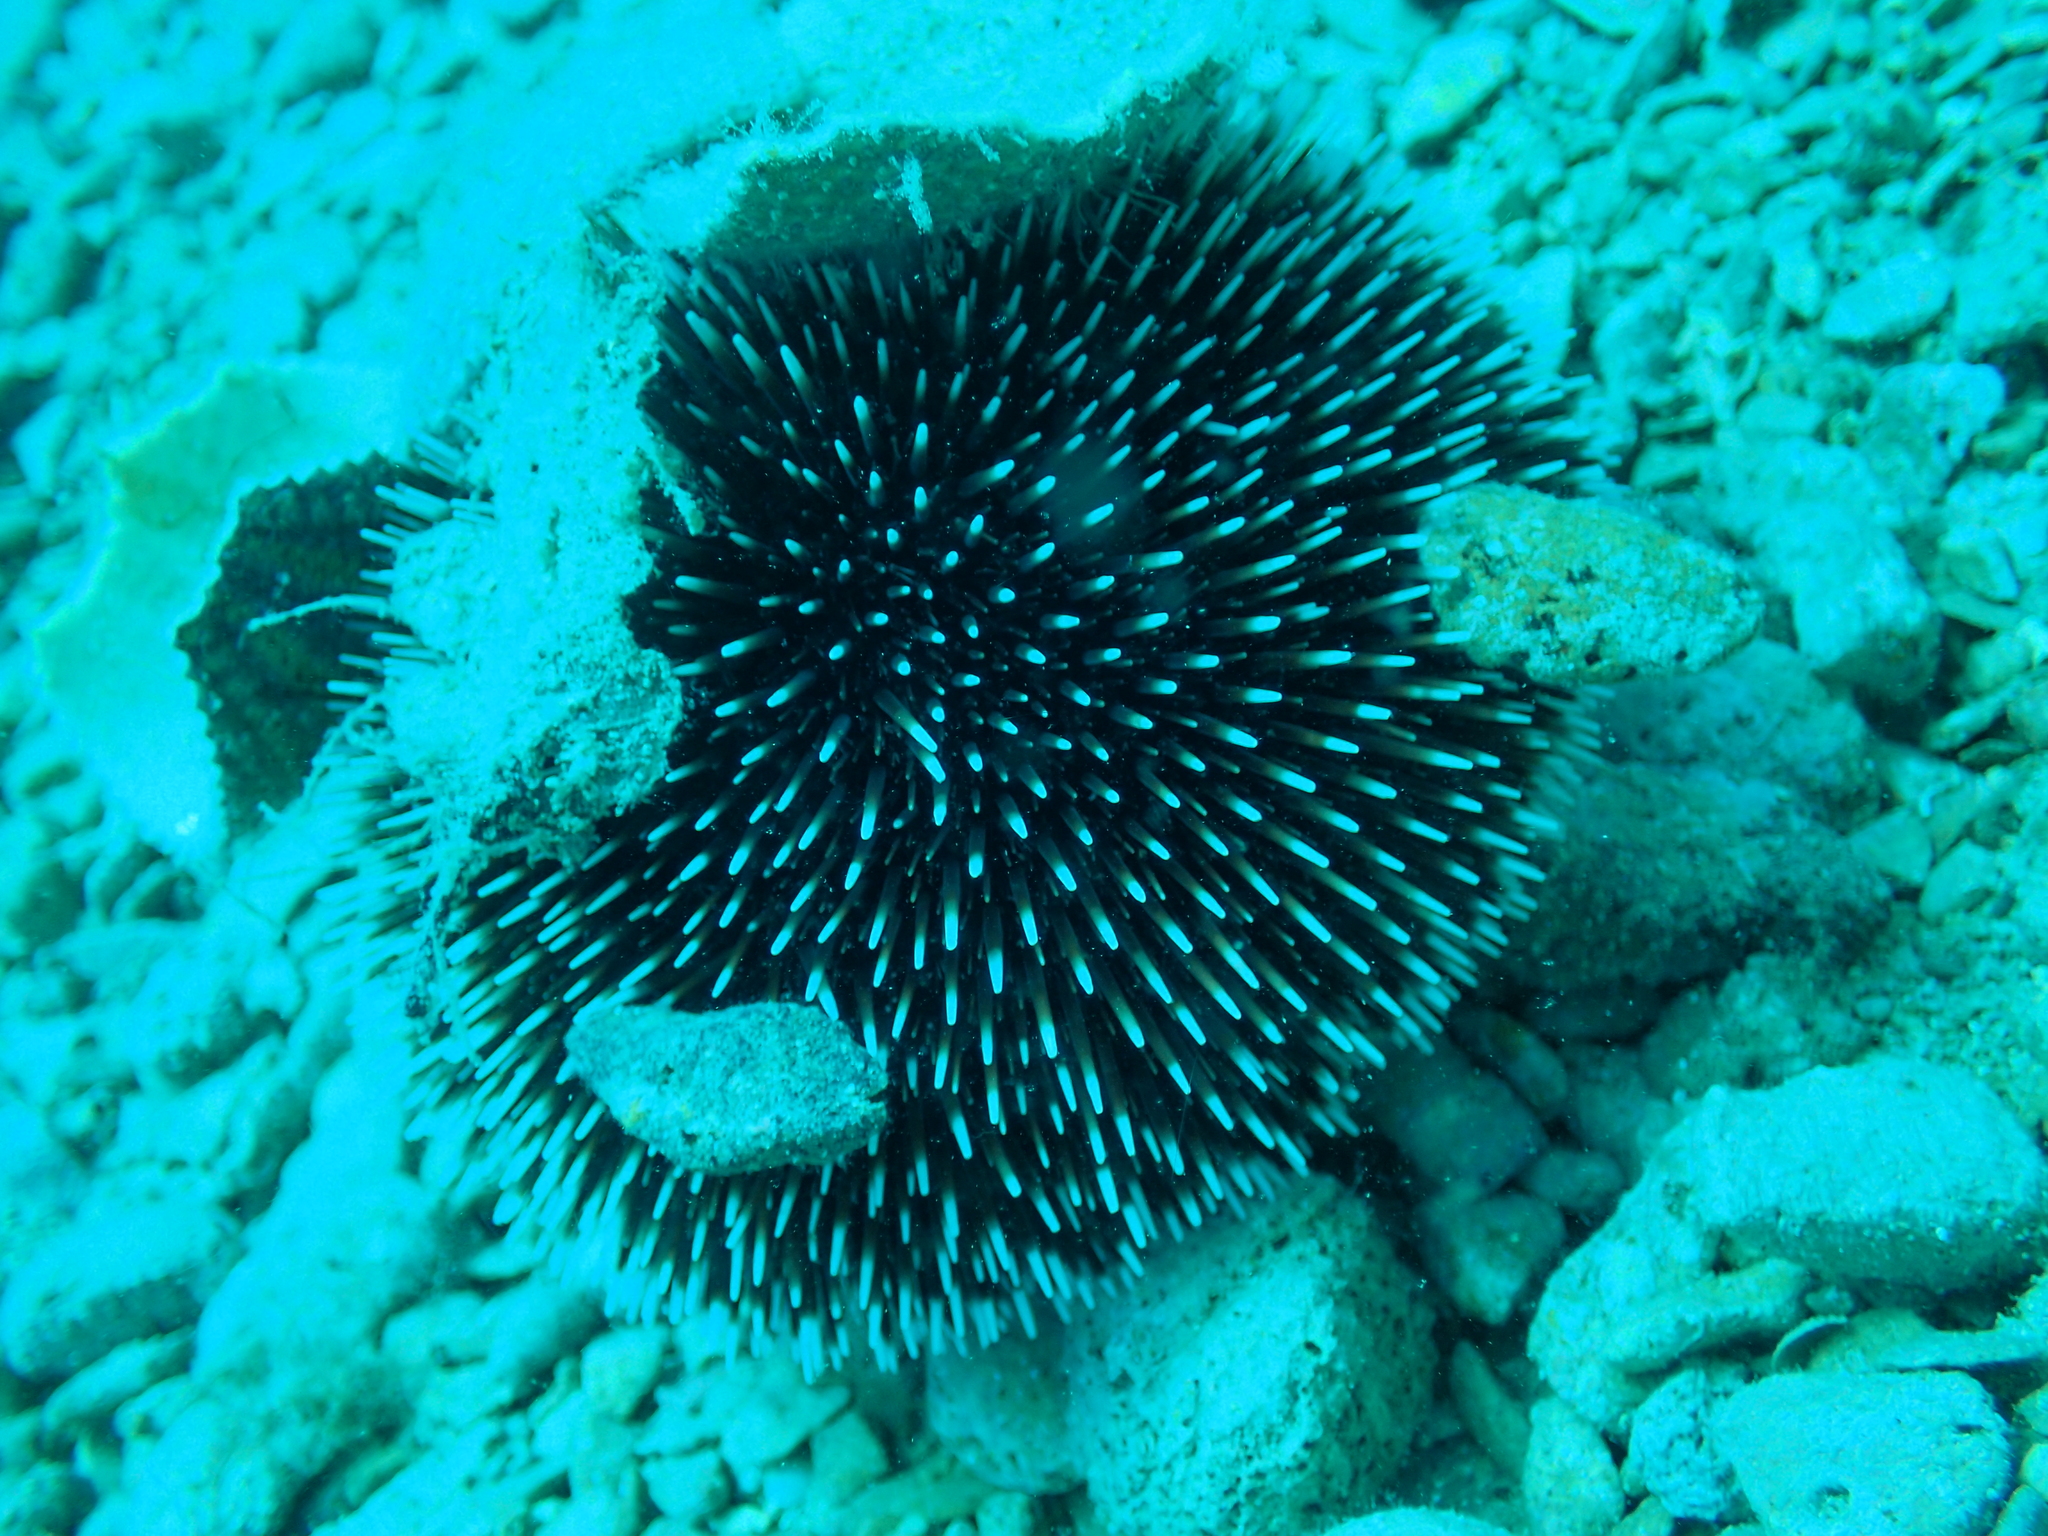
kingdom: Animalia
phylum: Echinodermata
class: Echinoidea
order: Camarodonta
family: Toxopneustidae
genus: Sphaerechinus
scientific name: Sphaerechinus granularis
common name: Violet sea urchin
